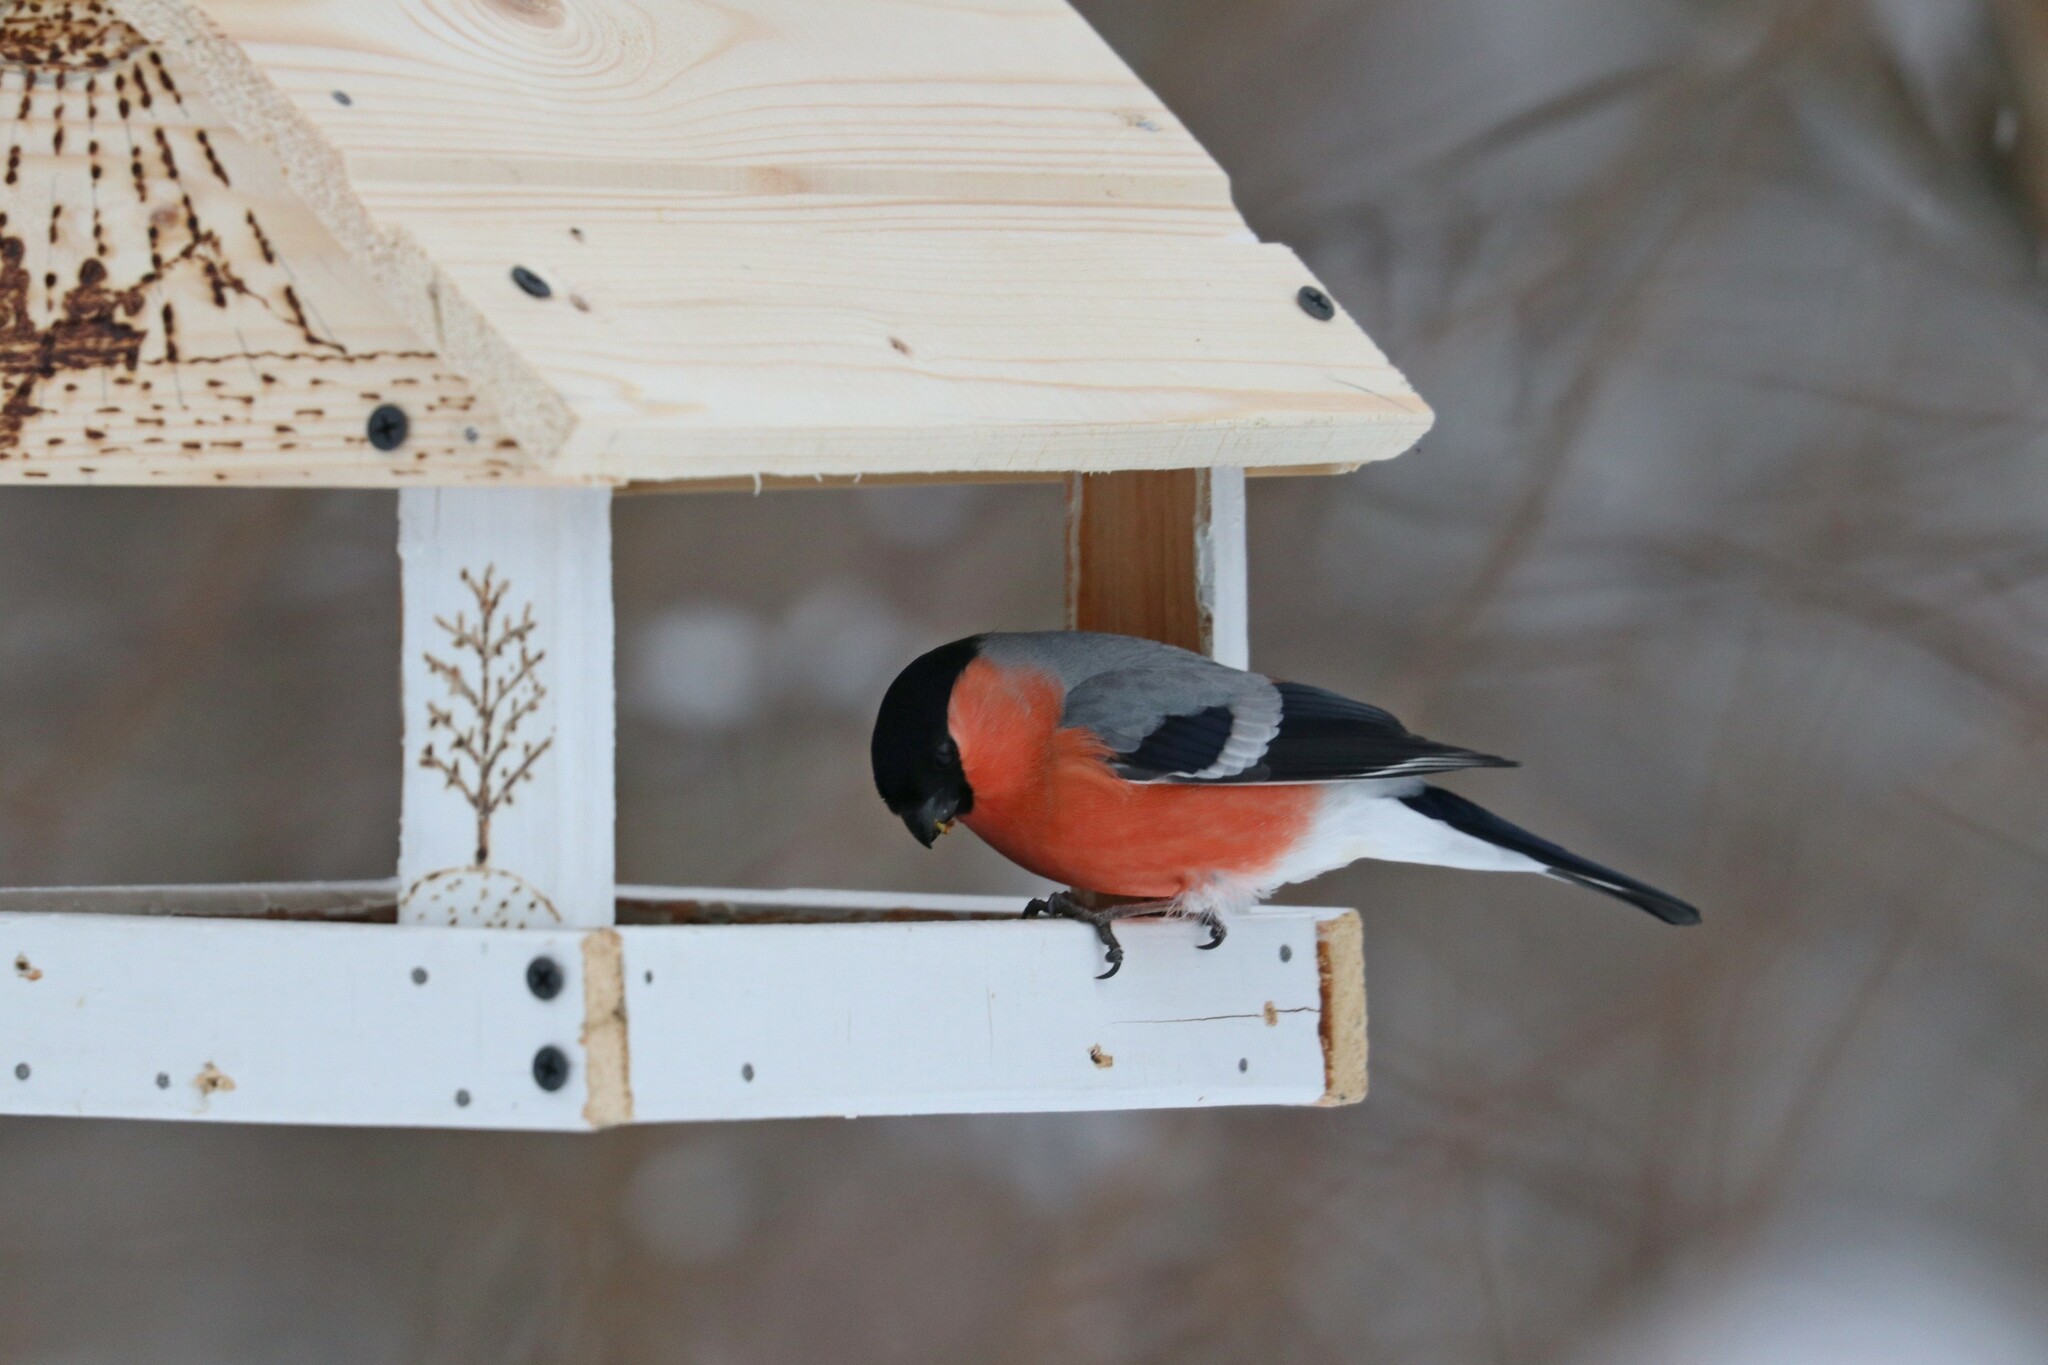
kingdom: Animalia
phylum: Chordata
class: Aves
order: Passeriformes
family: Fringillidae
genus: Pyrrhula
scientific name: Pyrrhula pyrrhula
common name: Eurasian bullfinch
